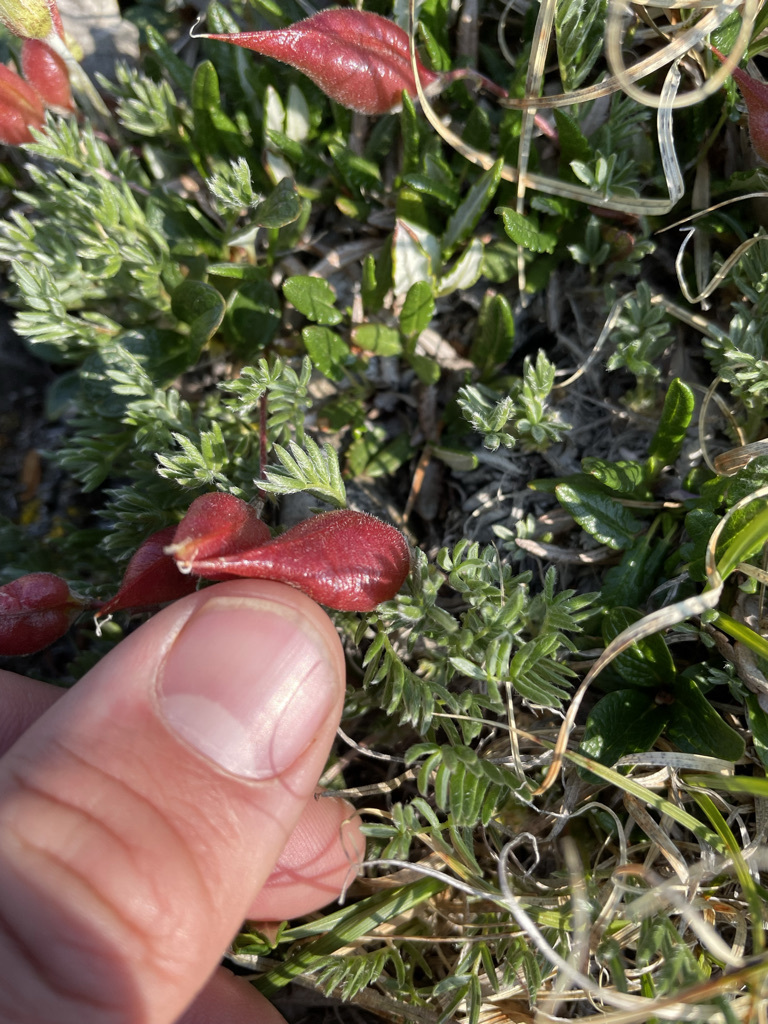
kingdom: Plantae
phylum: Tracheophyta
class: Magnoliopsida
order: Fabales
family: Fabaceae
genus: Oxytropis
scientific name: Oxytropis podocarpa
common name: Gray's oxytrope
